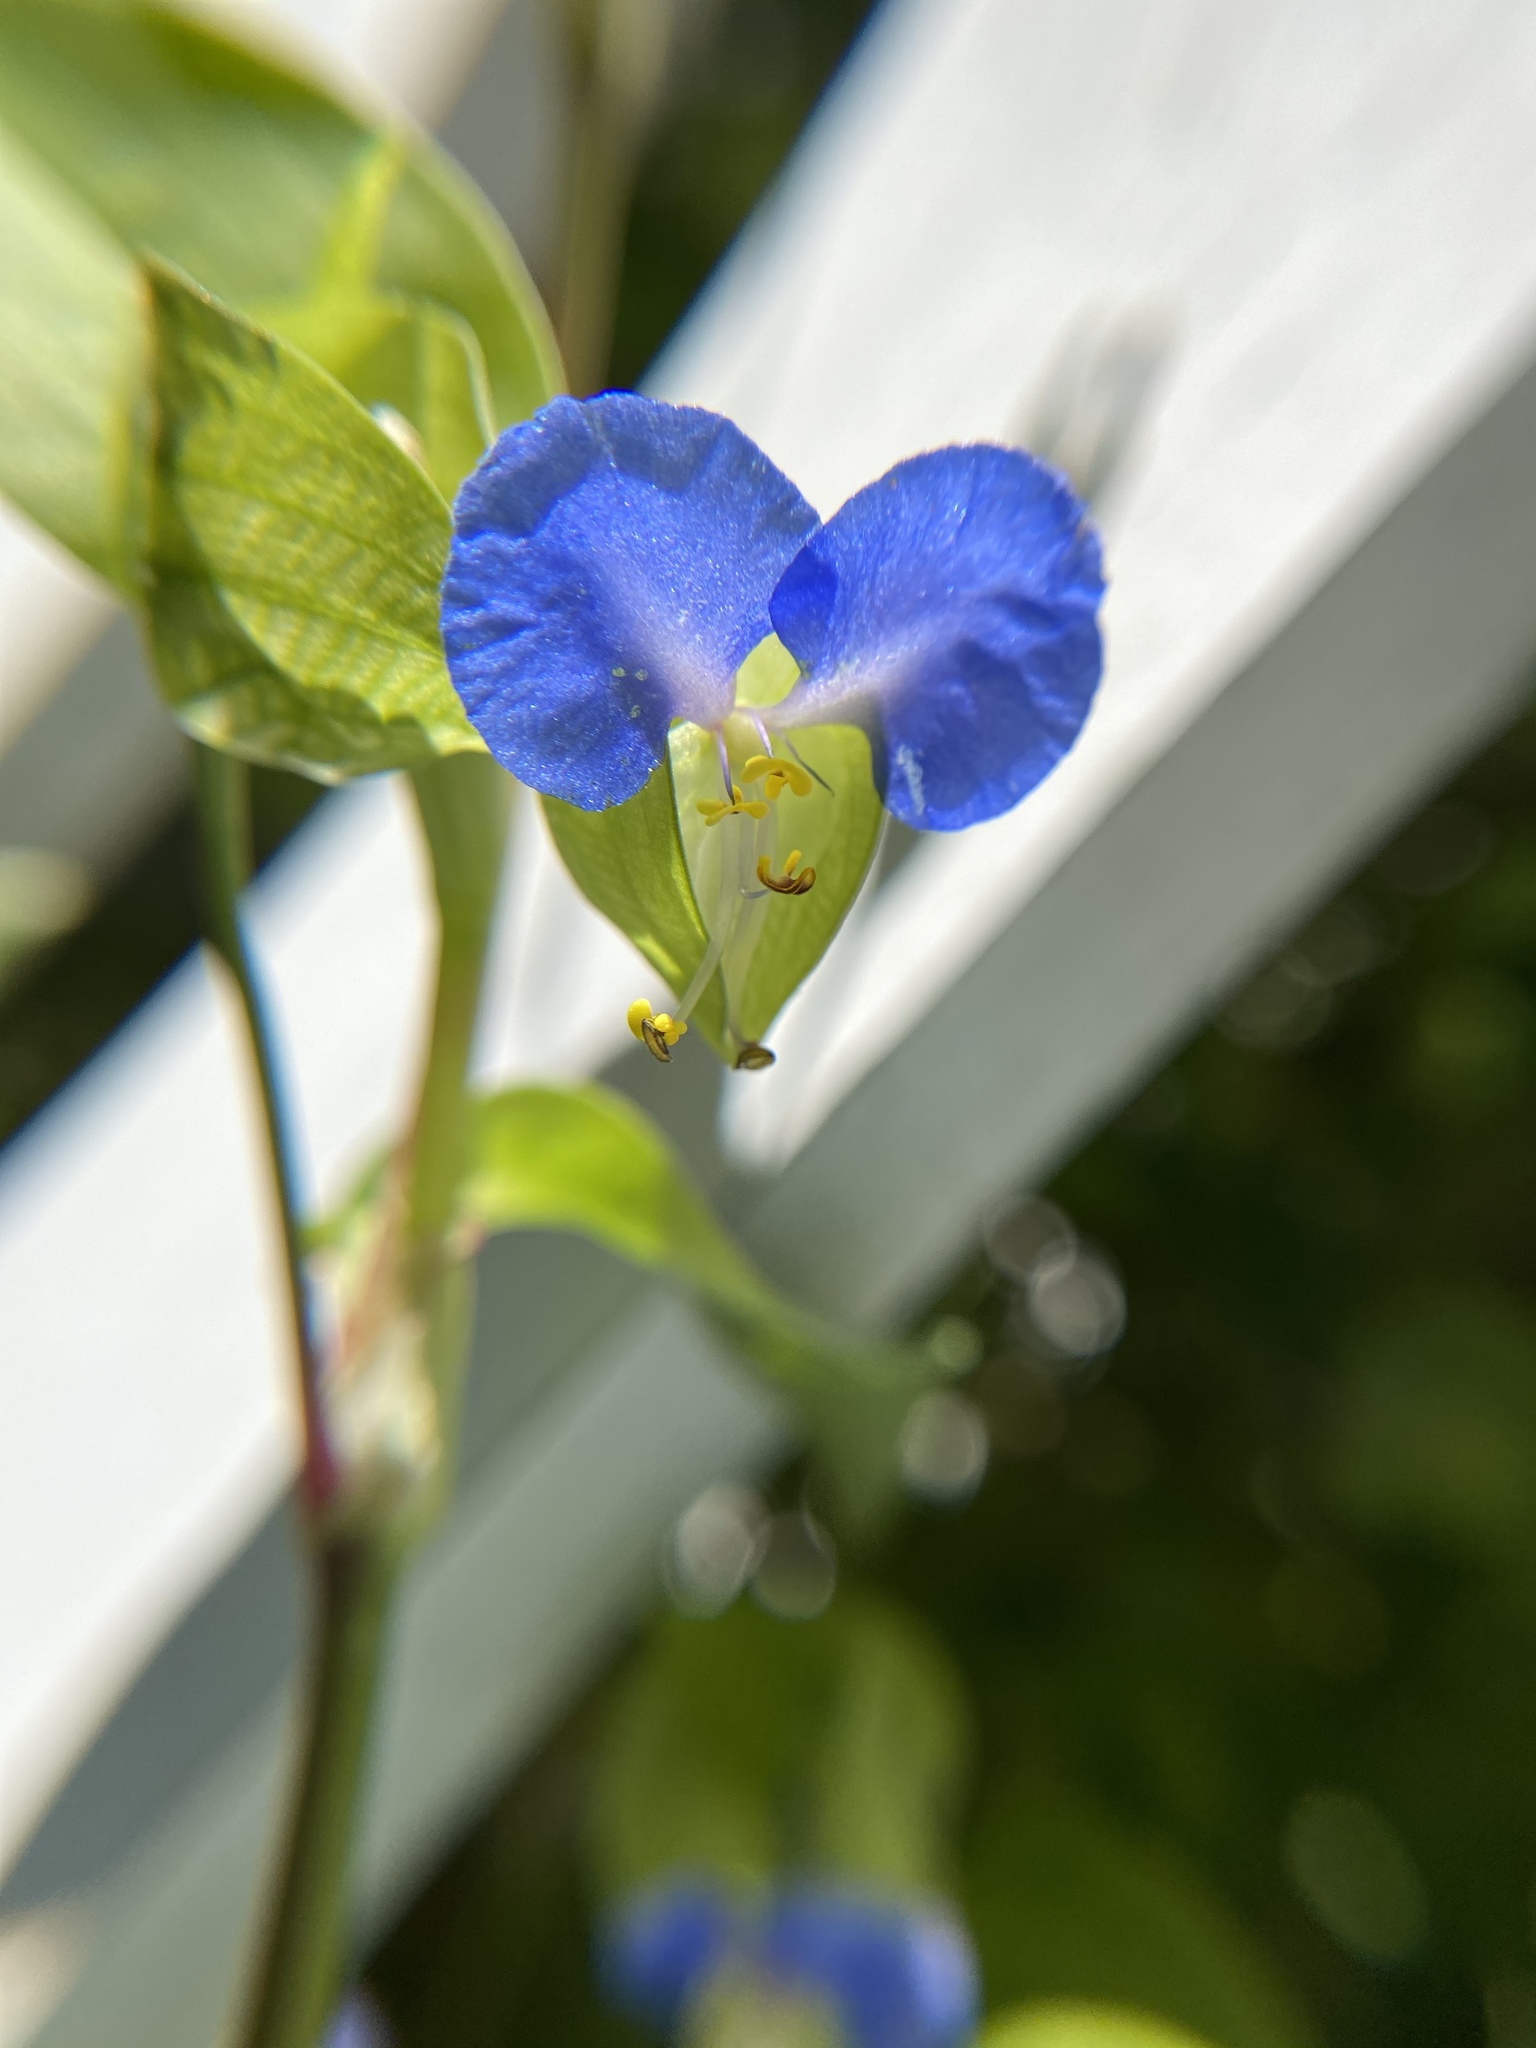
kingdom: Plantae
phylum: Tracheophyta
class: Liliopsida
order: Commelinales
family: Commelinaceae
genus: Commelina
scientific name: Commelina communis
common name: Asiatic dayflower
